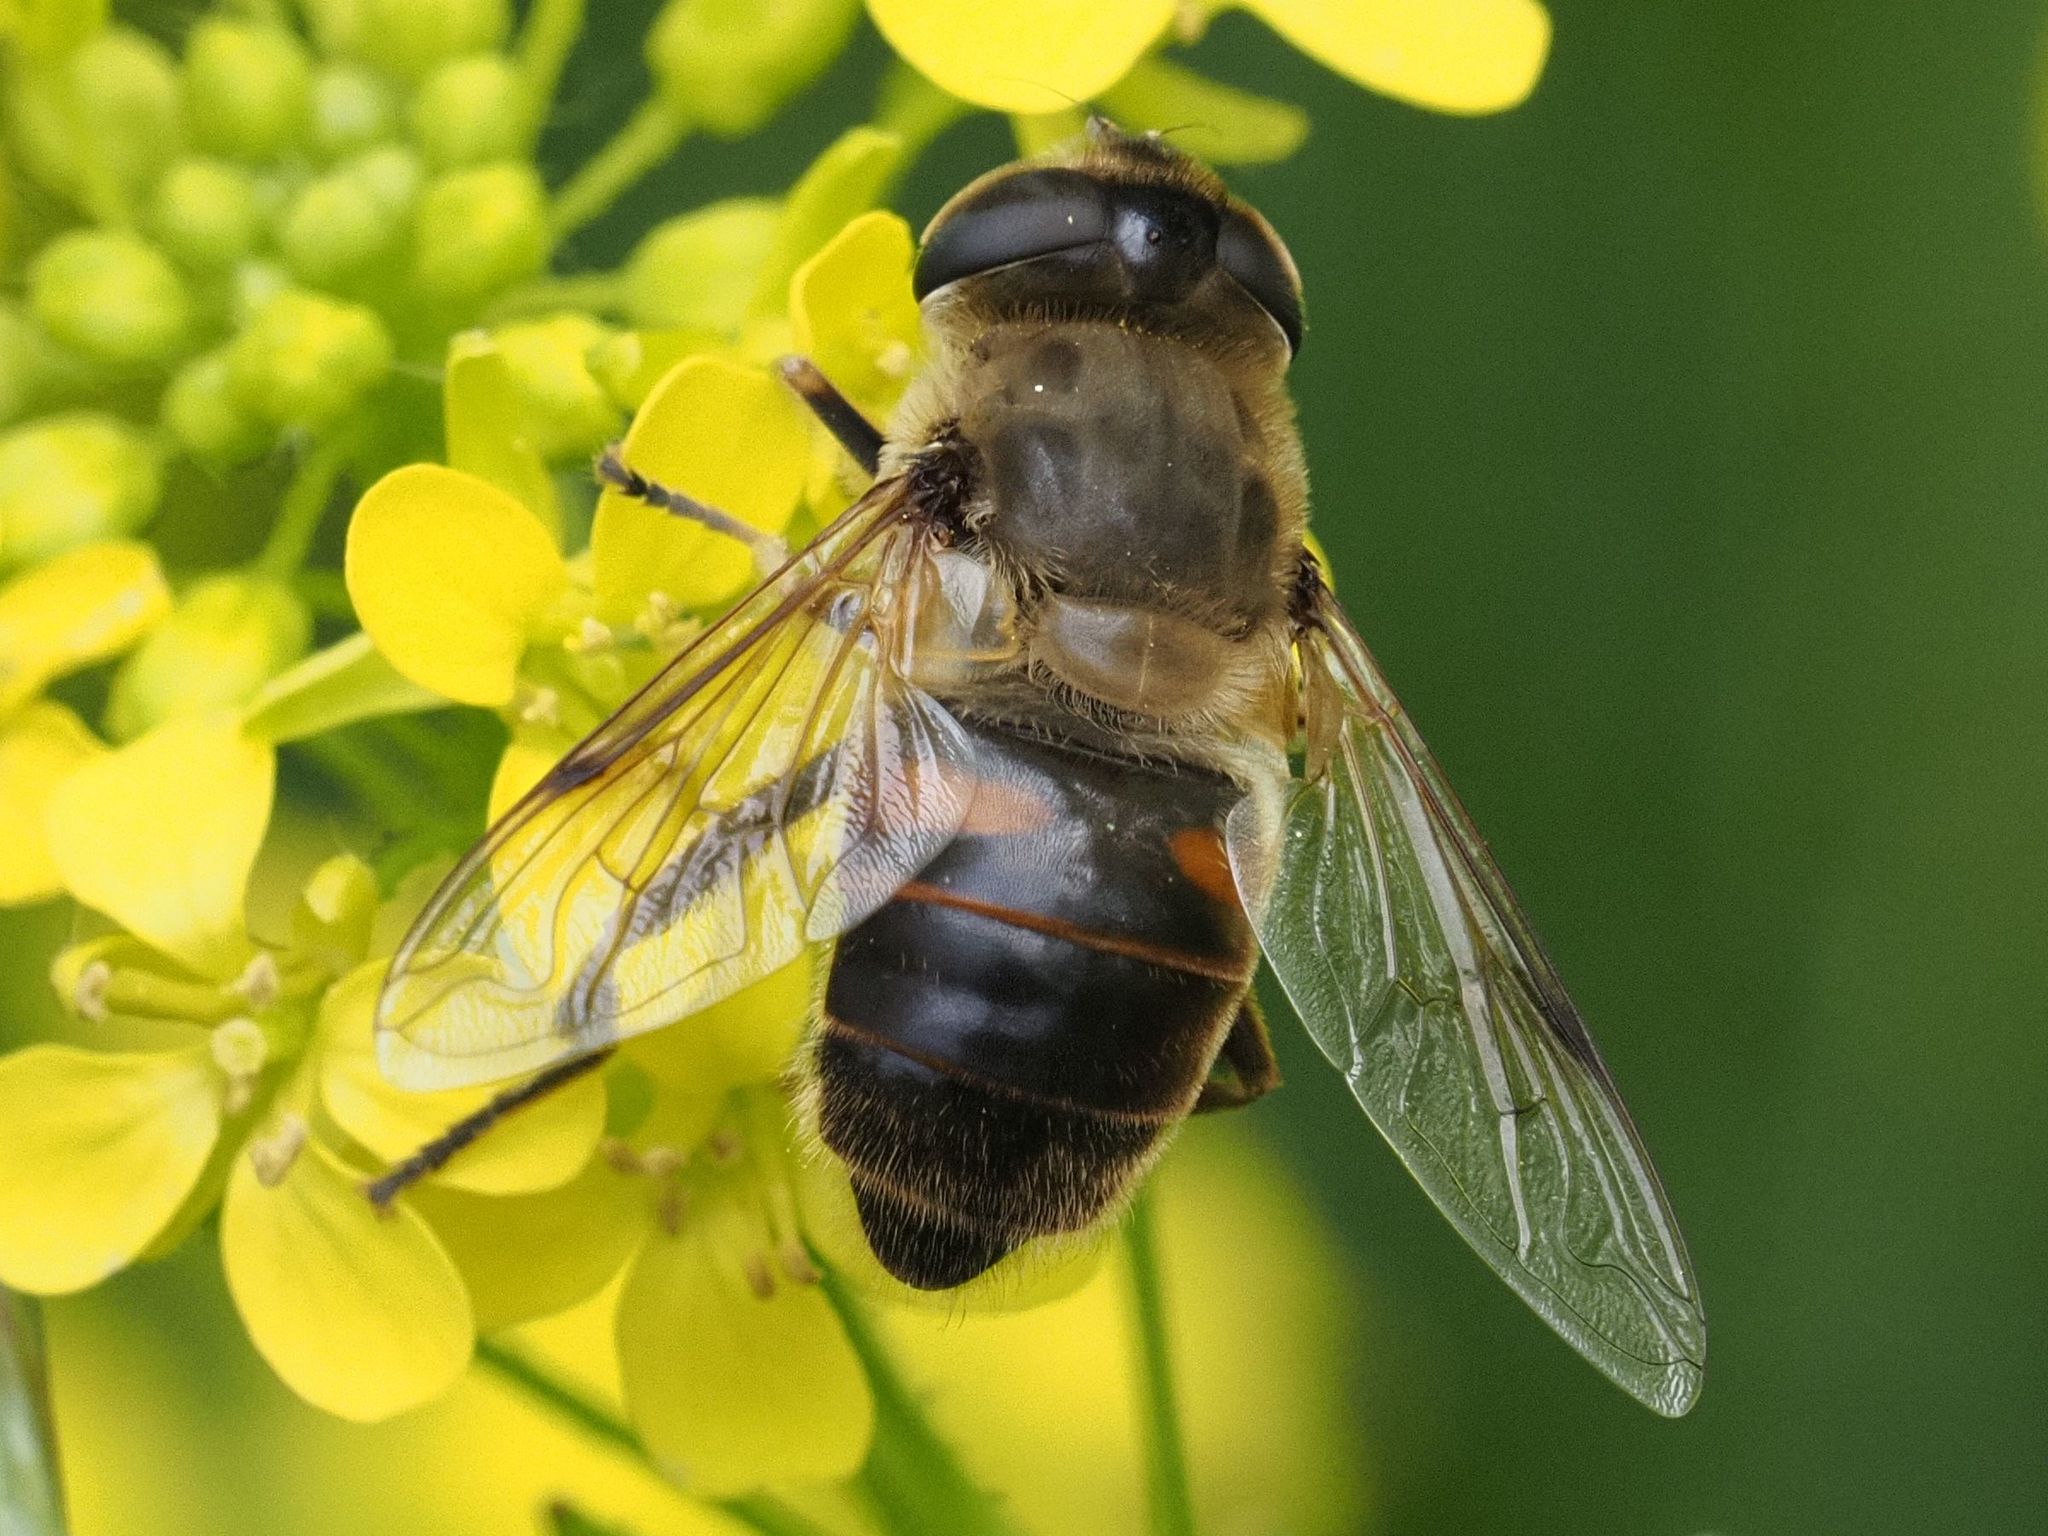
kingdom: Animalia
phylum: Arthropoda
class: Insecta
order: Diptera
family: Syrphidae
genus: Eristalis
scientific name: Eristalis tenax
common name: Drone fly
